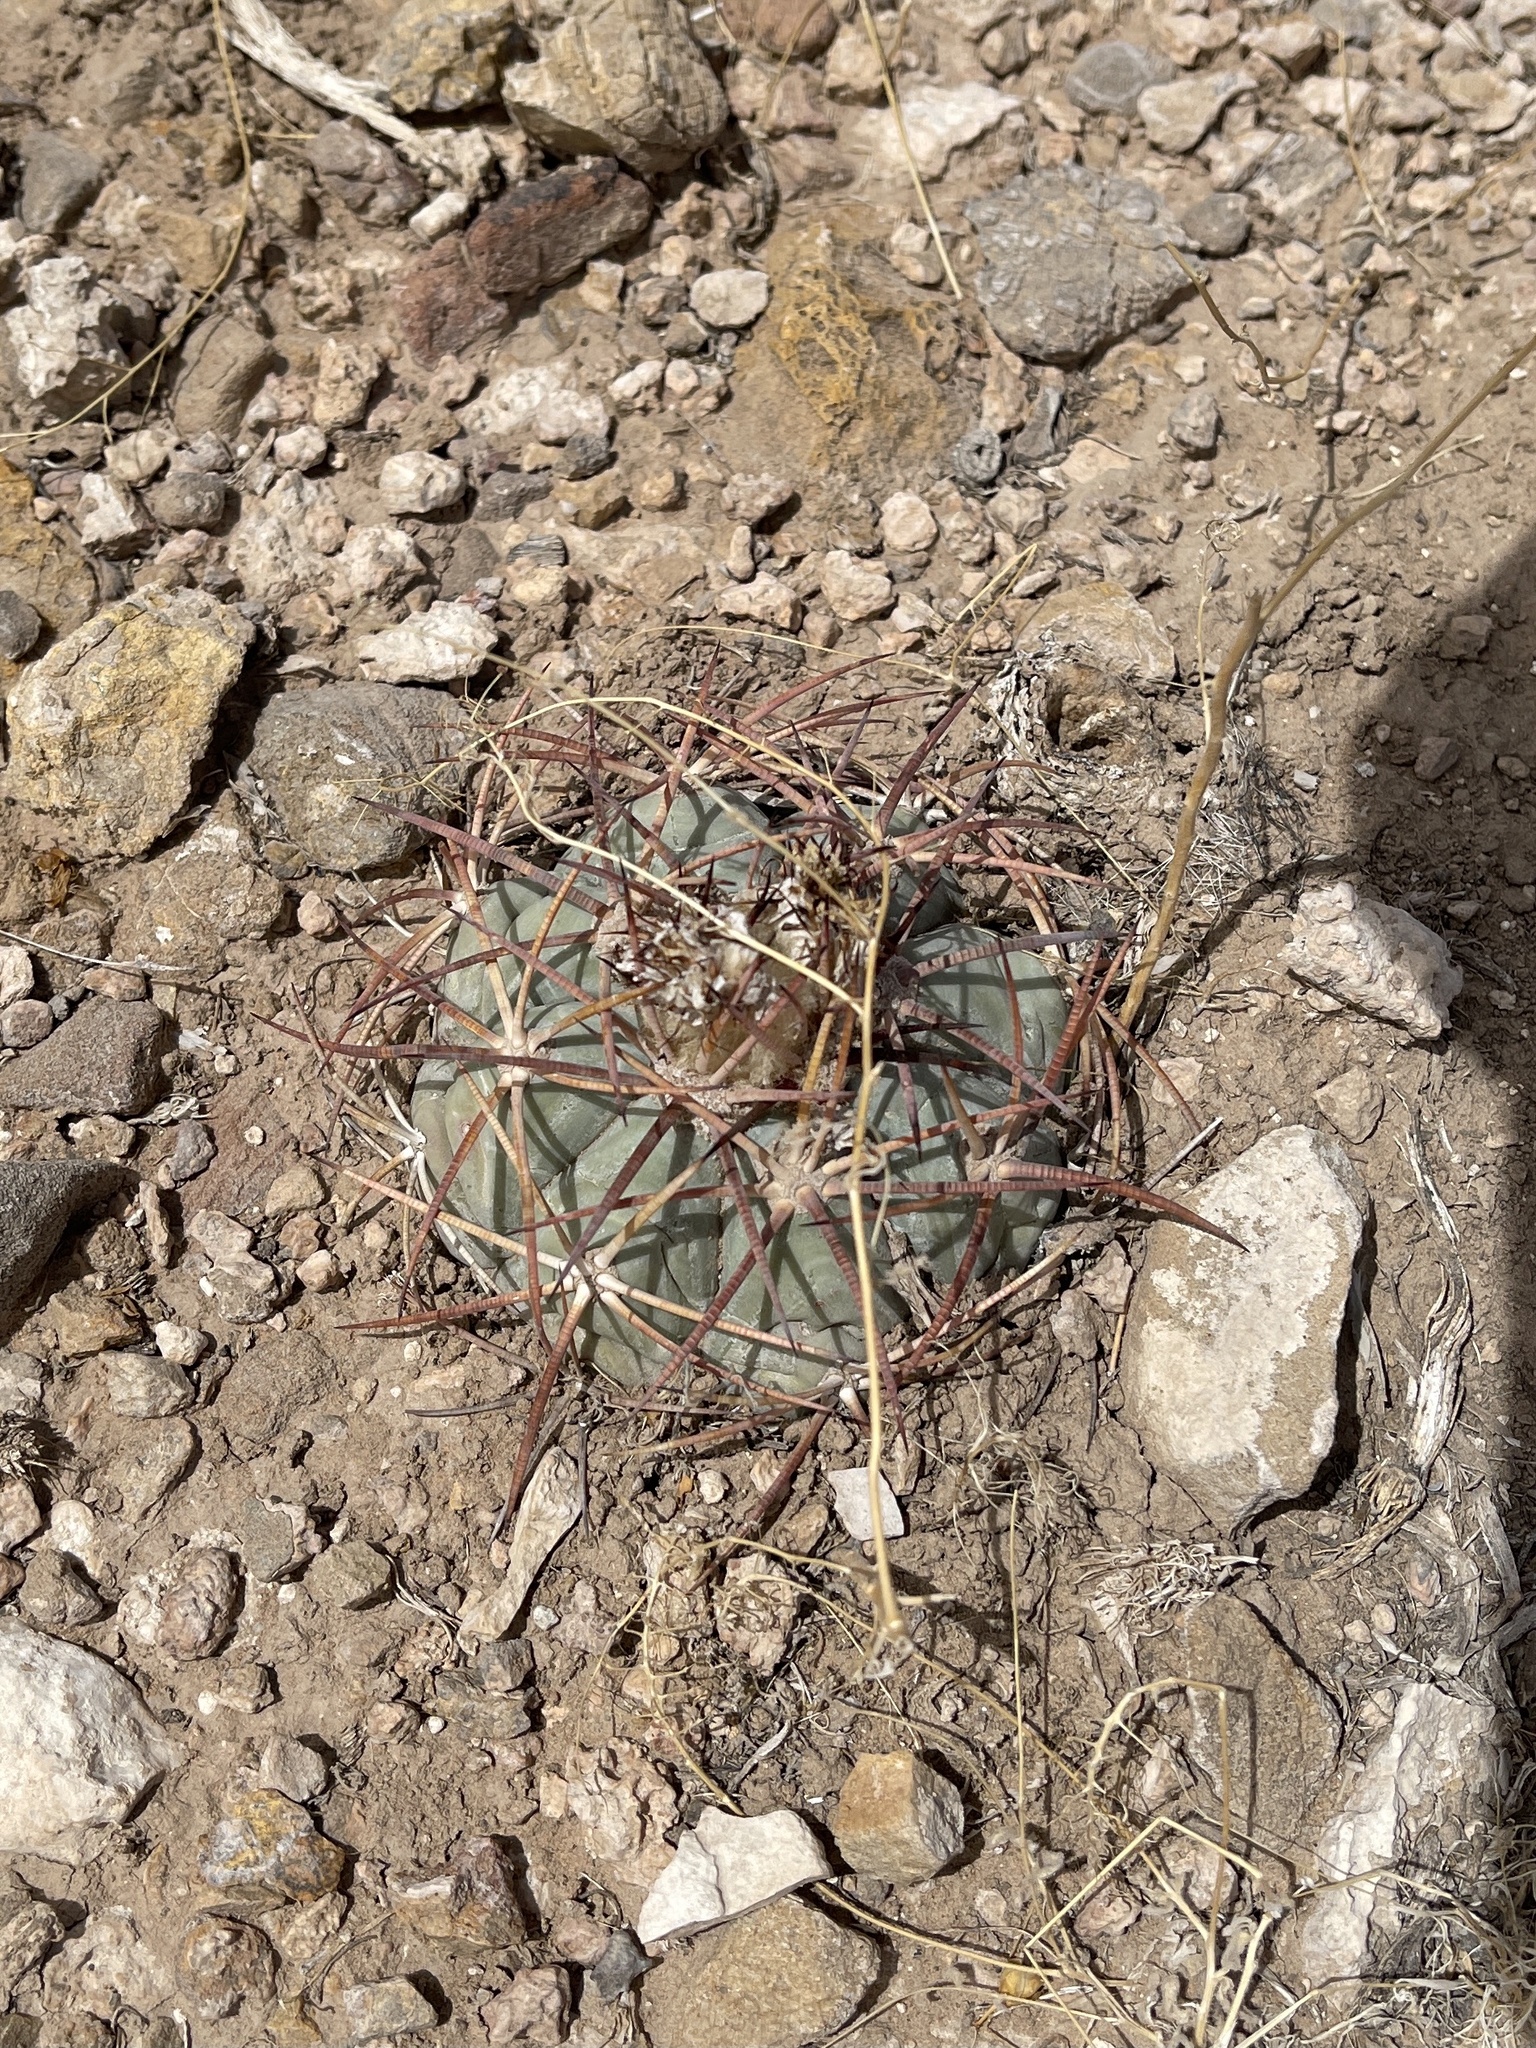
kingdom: Plantae
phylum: Tracheophyta
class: Magnoliopsida
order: Caryophyllales
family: Cactaceae
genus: Echinocactus
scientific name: Echinocactus horizonthalonius
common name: Devilshead
